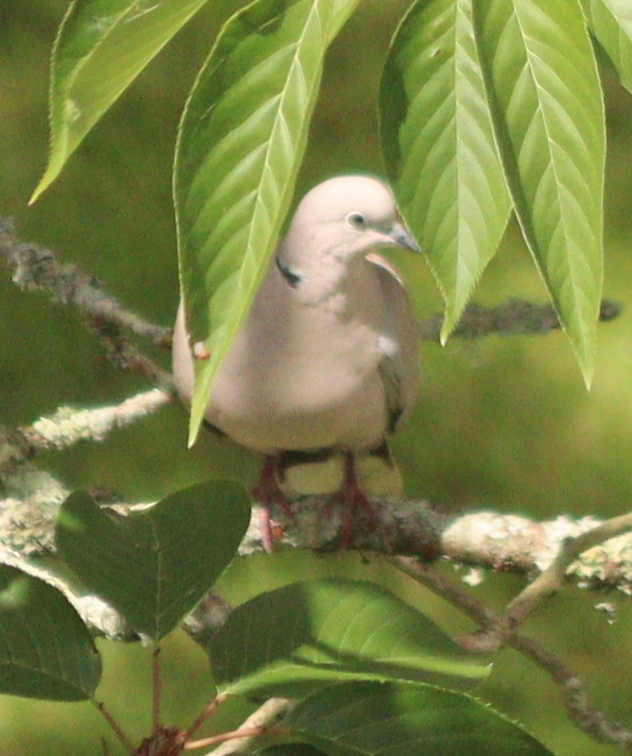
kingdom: Animalia
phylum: Chordata
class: Aves
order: Columbiformes
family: Columbidae
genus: Streptopelia
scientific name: Streptopelia decaocto
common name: Eurasian collared dove
